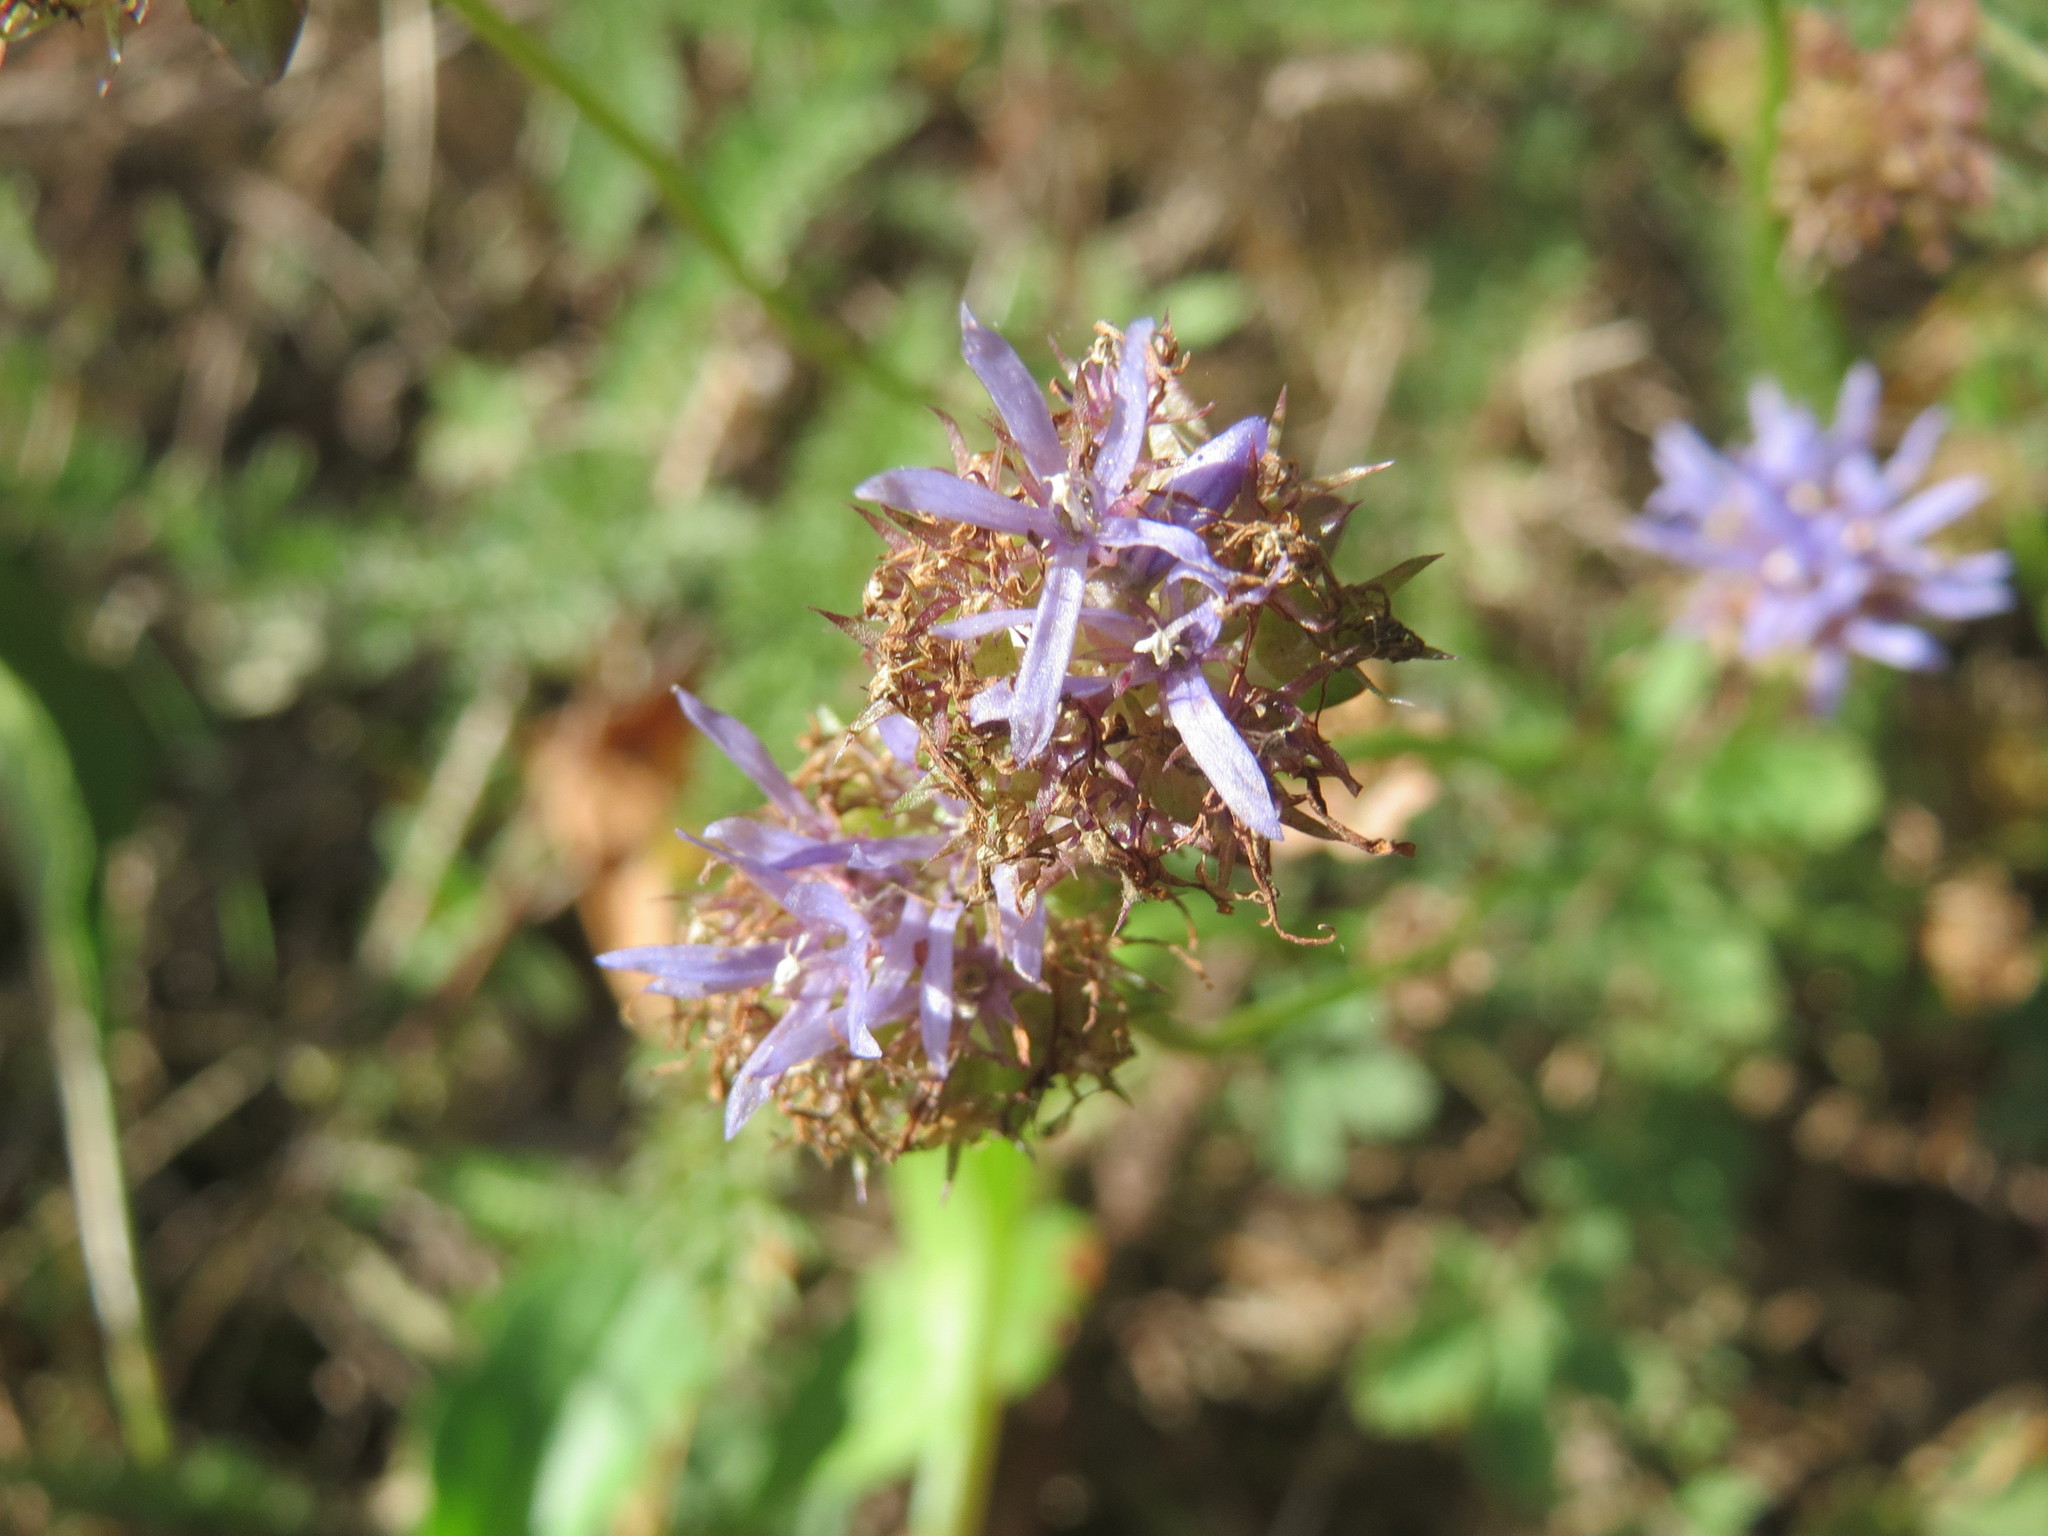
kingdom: Plantae
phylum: Tracheophyta
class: Magnoliopsida
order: Asterales
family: Campanulaceae
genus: Jasione
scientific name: Jasione montana
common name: Sheep's-bit
